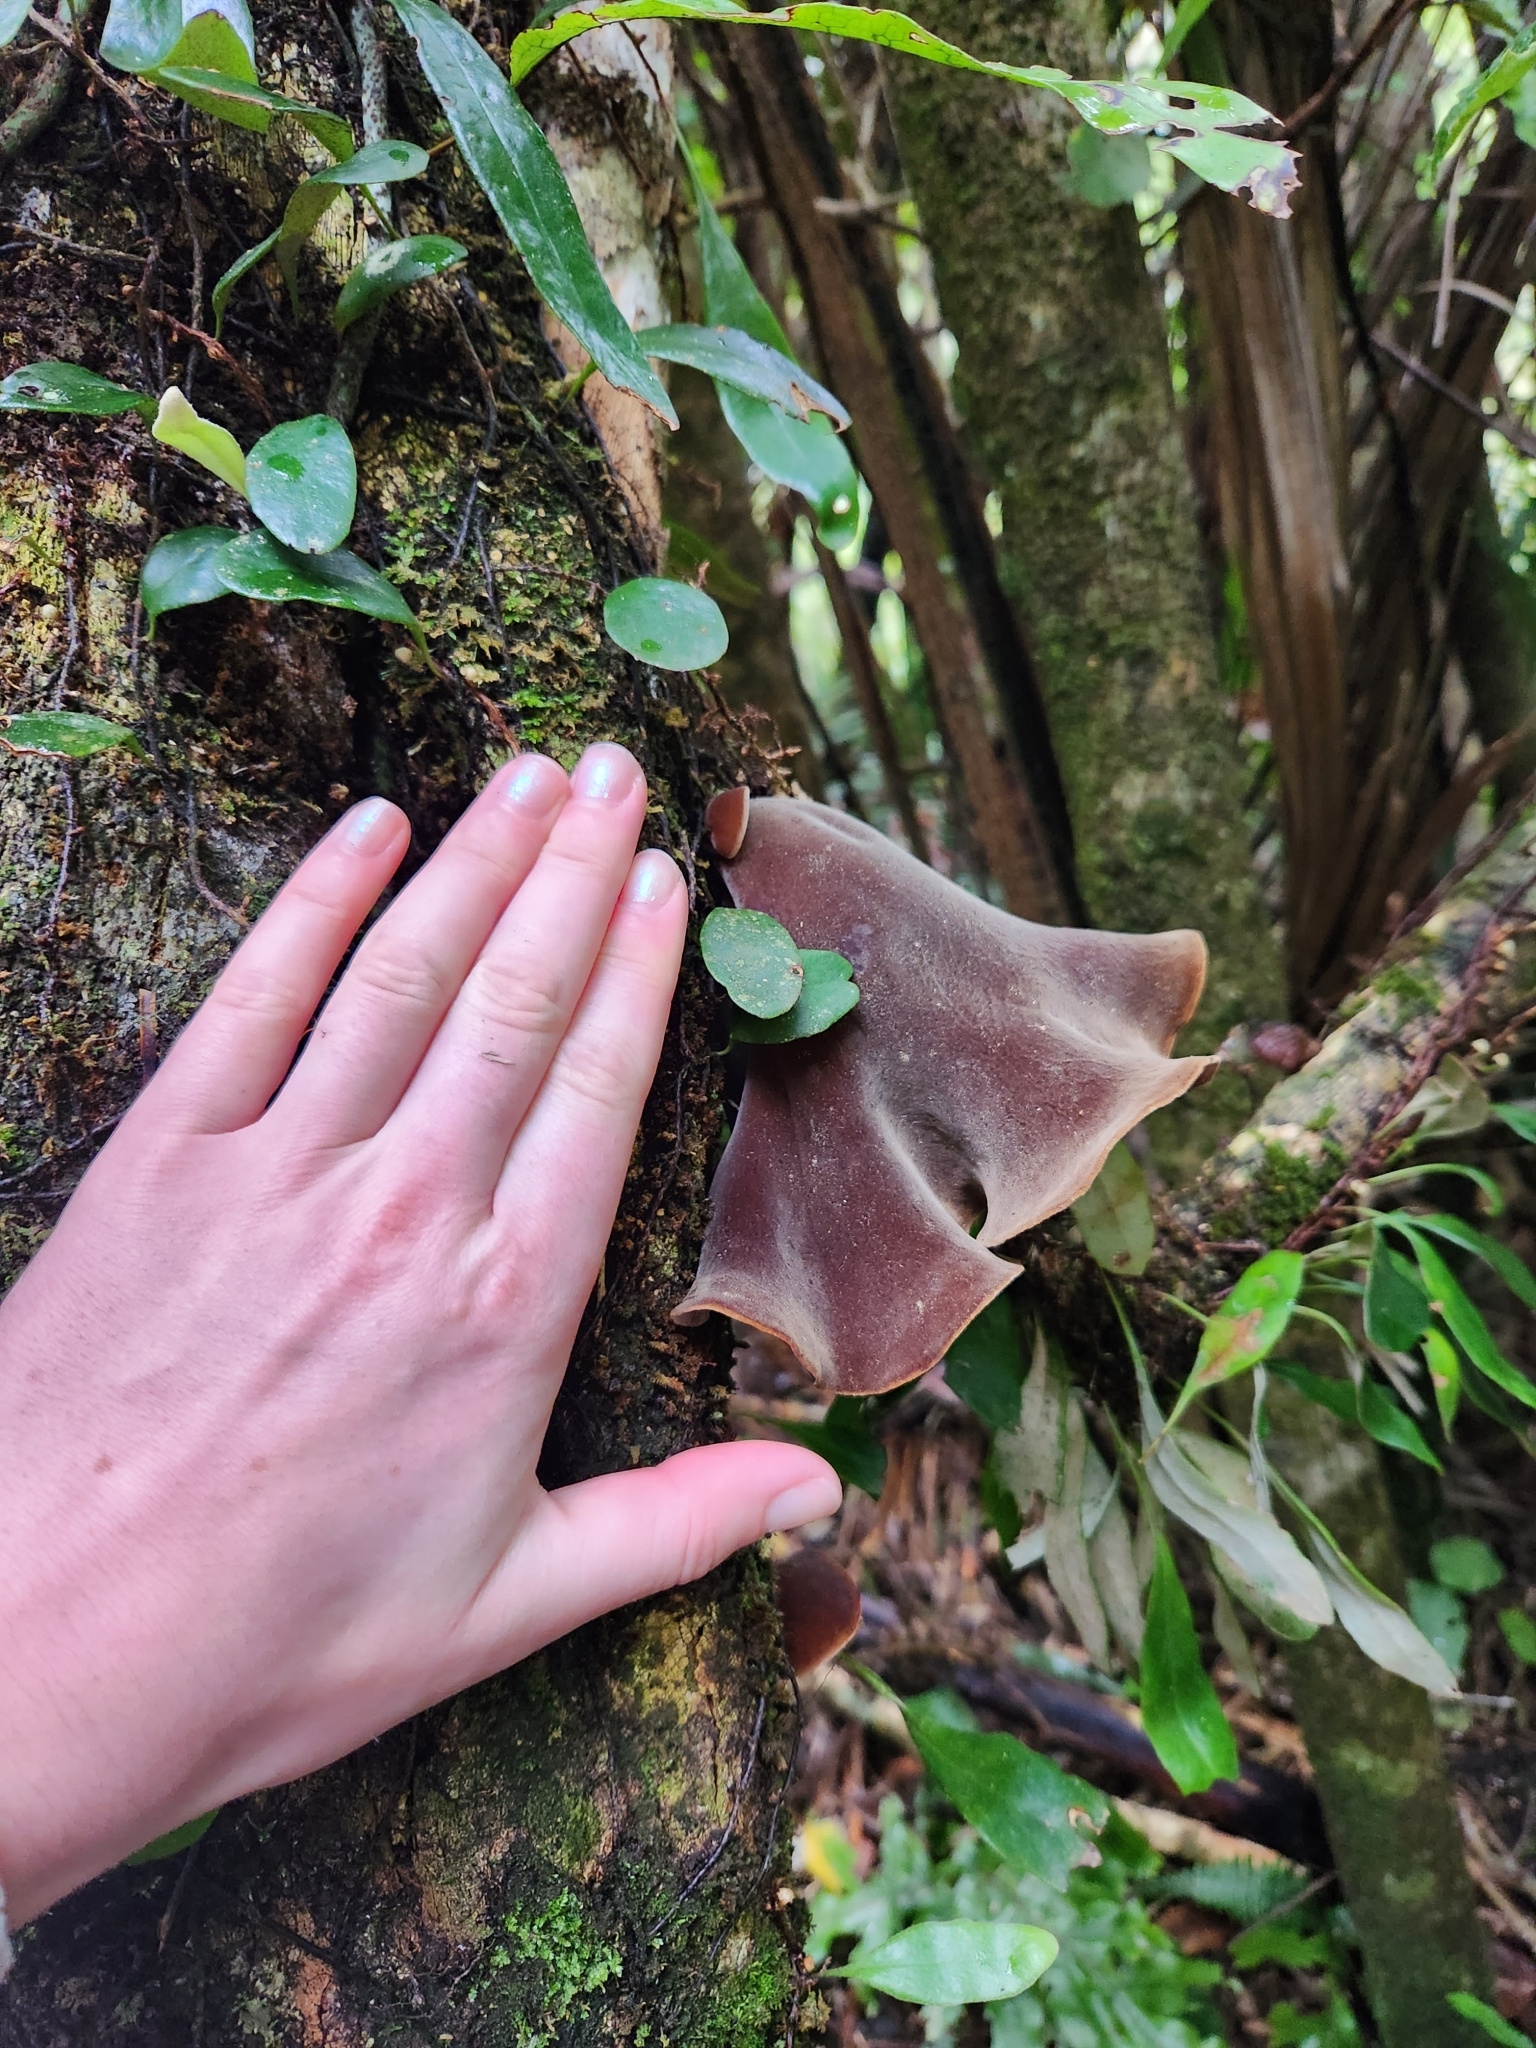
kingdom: Fungi
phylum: Basidiomycota
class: Agaricomycetes
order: Auriculariales
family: Auriculariaceae
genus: Auricularia
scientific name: Auricularia cornea
